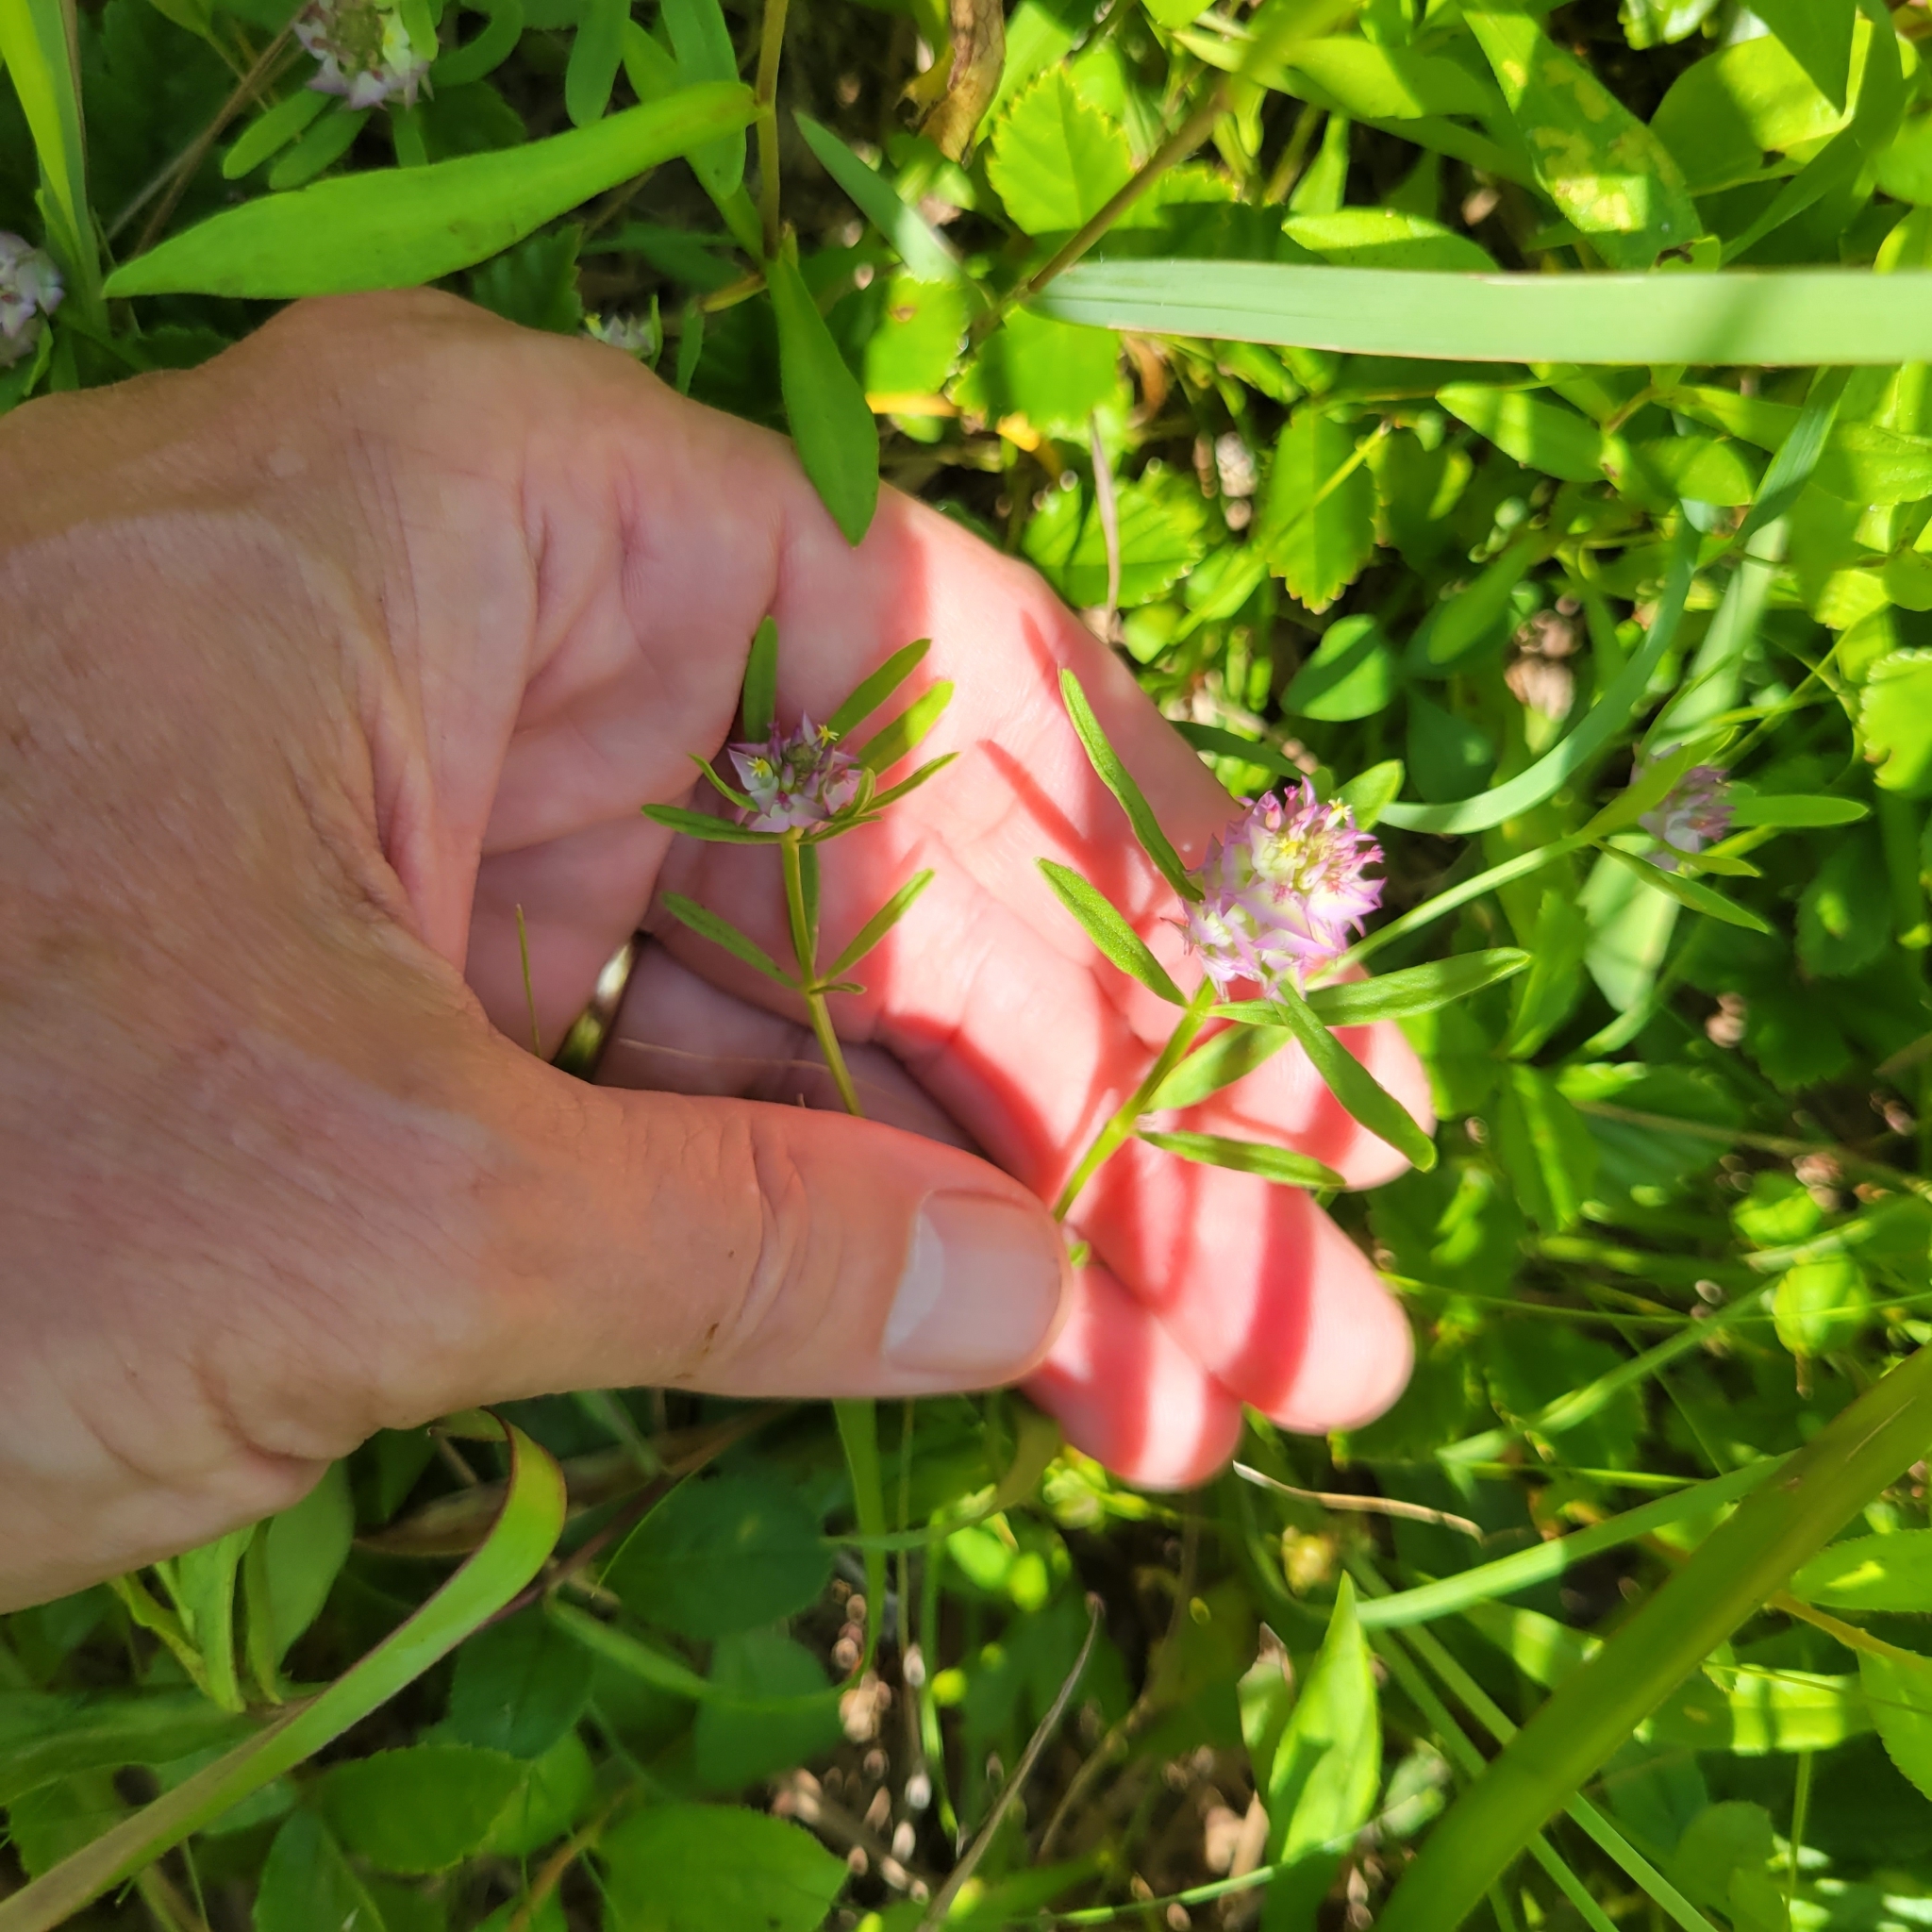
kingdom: Plantae
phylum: Tracheophyta
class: Magnoliopsida
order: Fabales
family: Polygalaceae
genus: Polygala
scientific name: Polygala cruciata
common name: Drumheads
